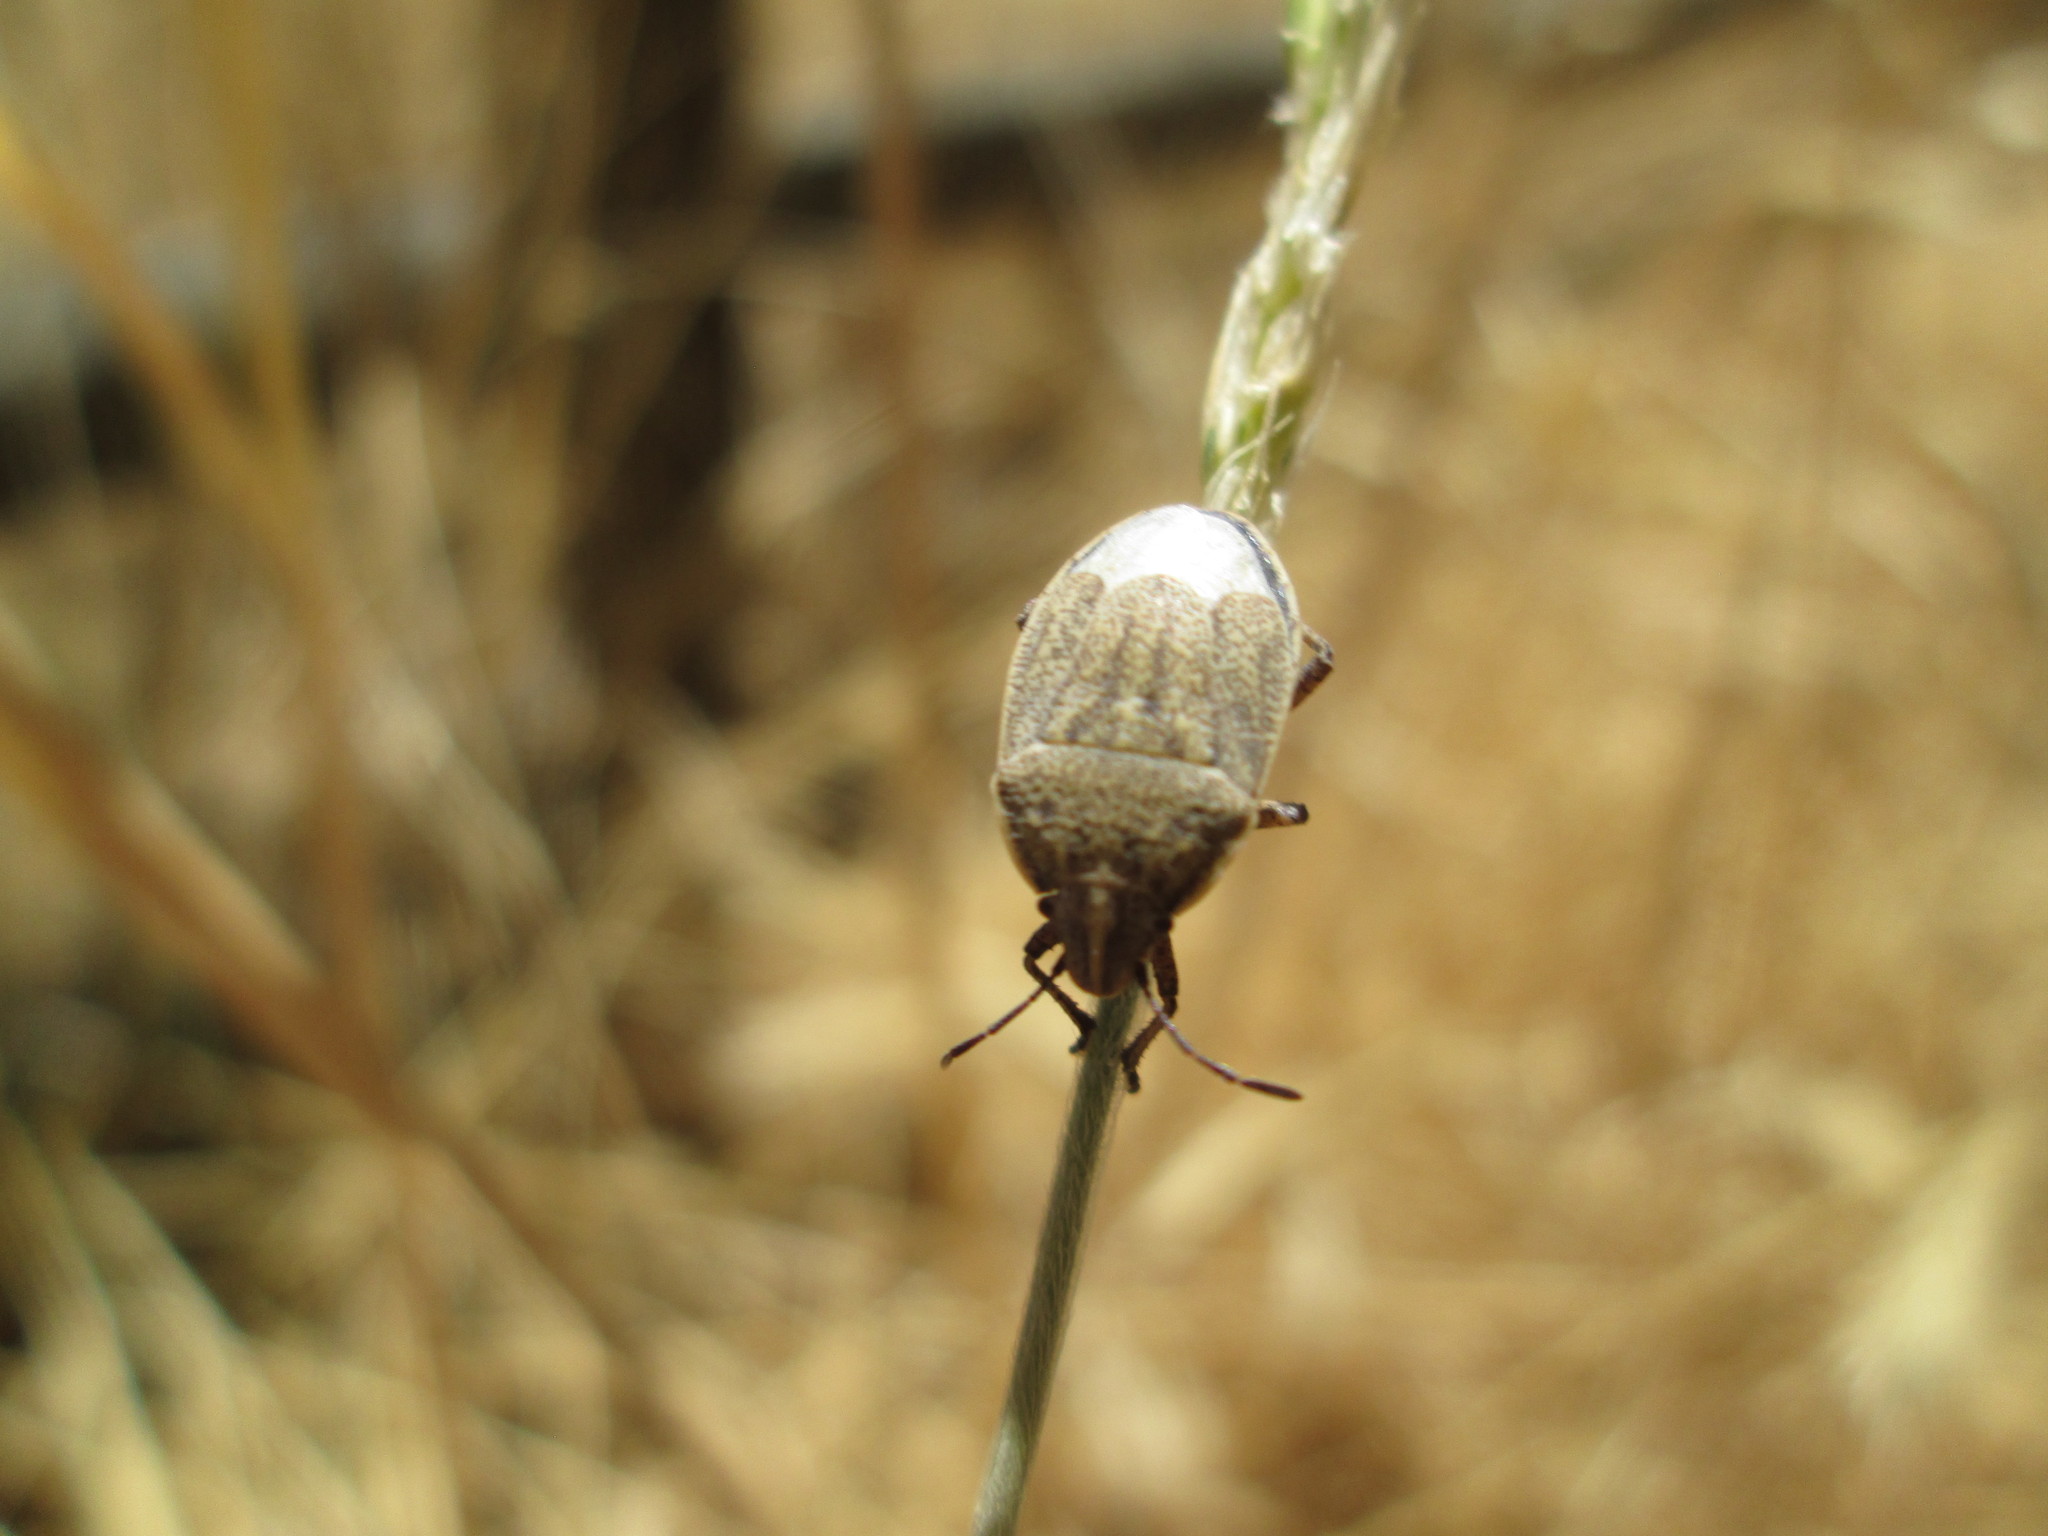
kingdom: Animalia
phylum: Arthropoda
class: Insecta
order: Hemiptera
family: Pentatomidae
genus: Coenus
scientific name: Coenus delius
